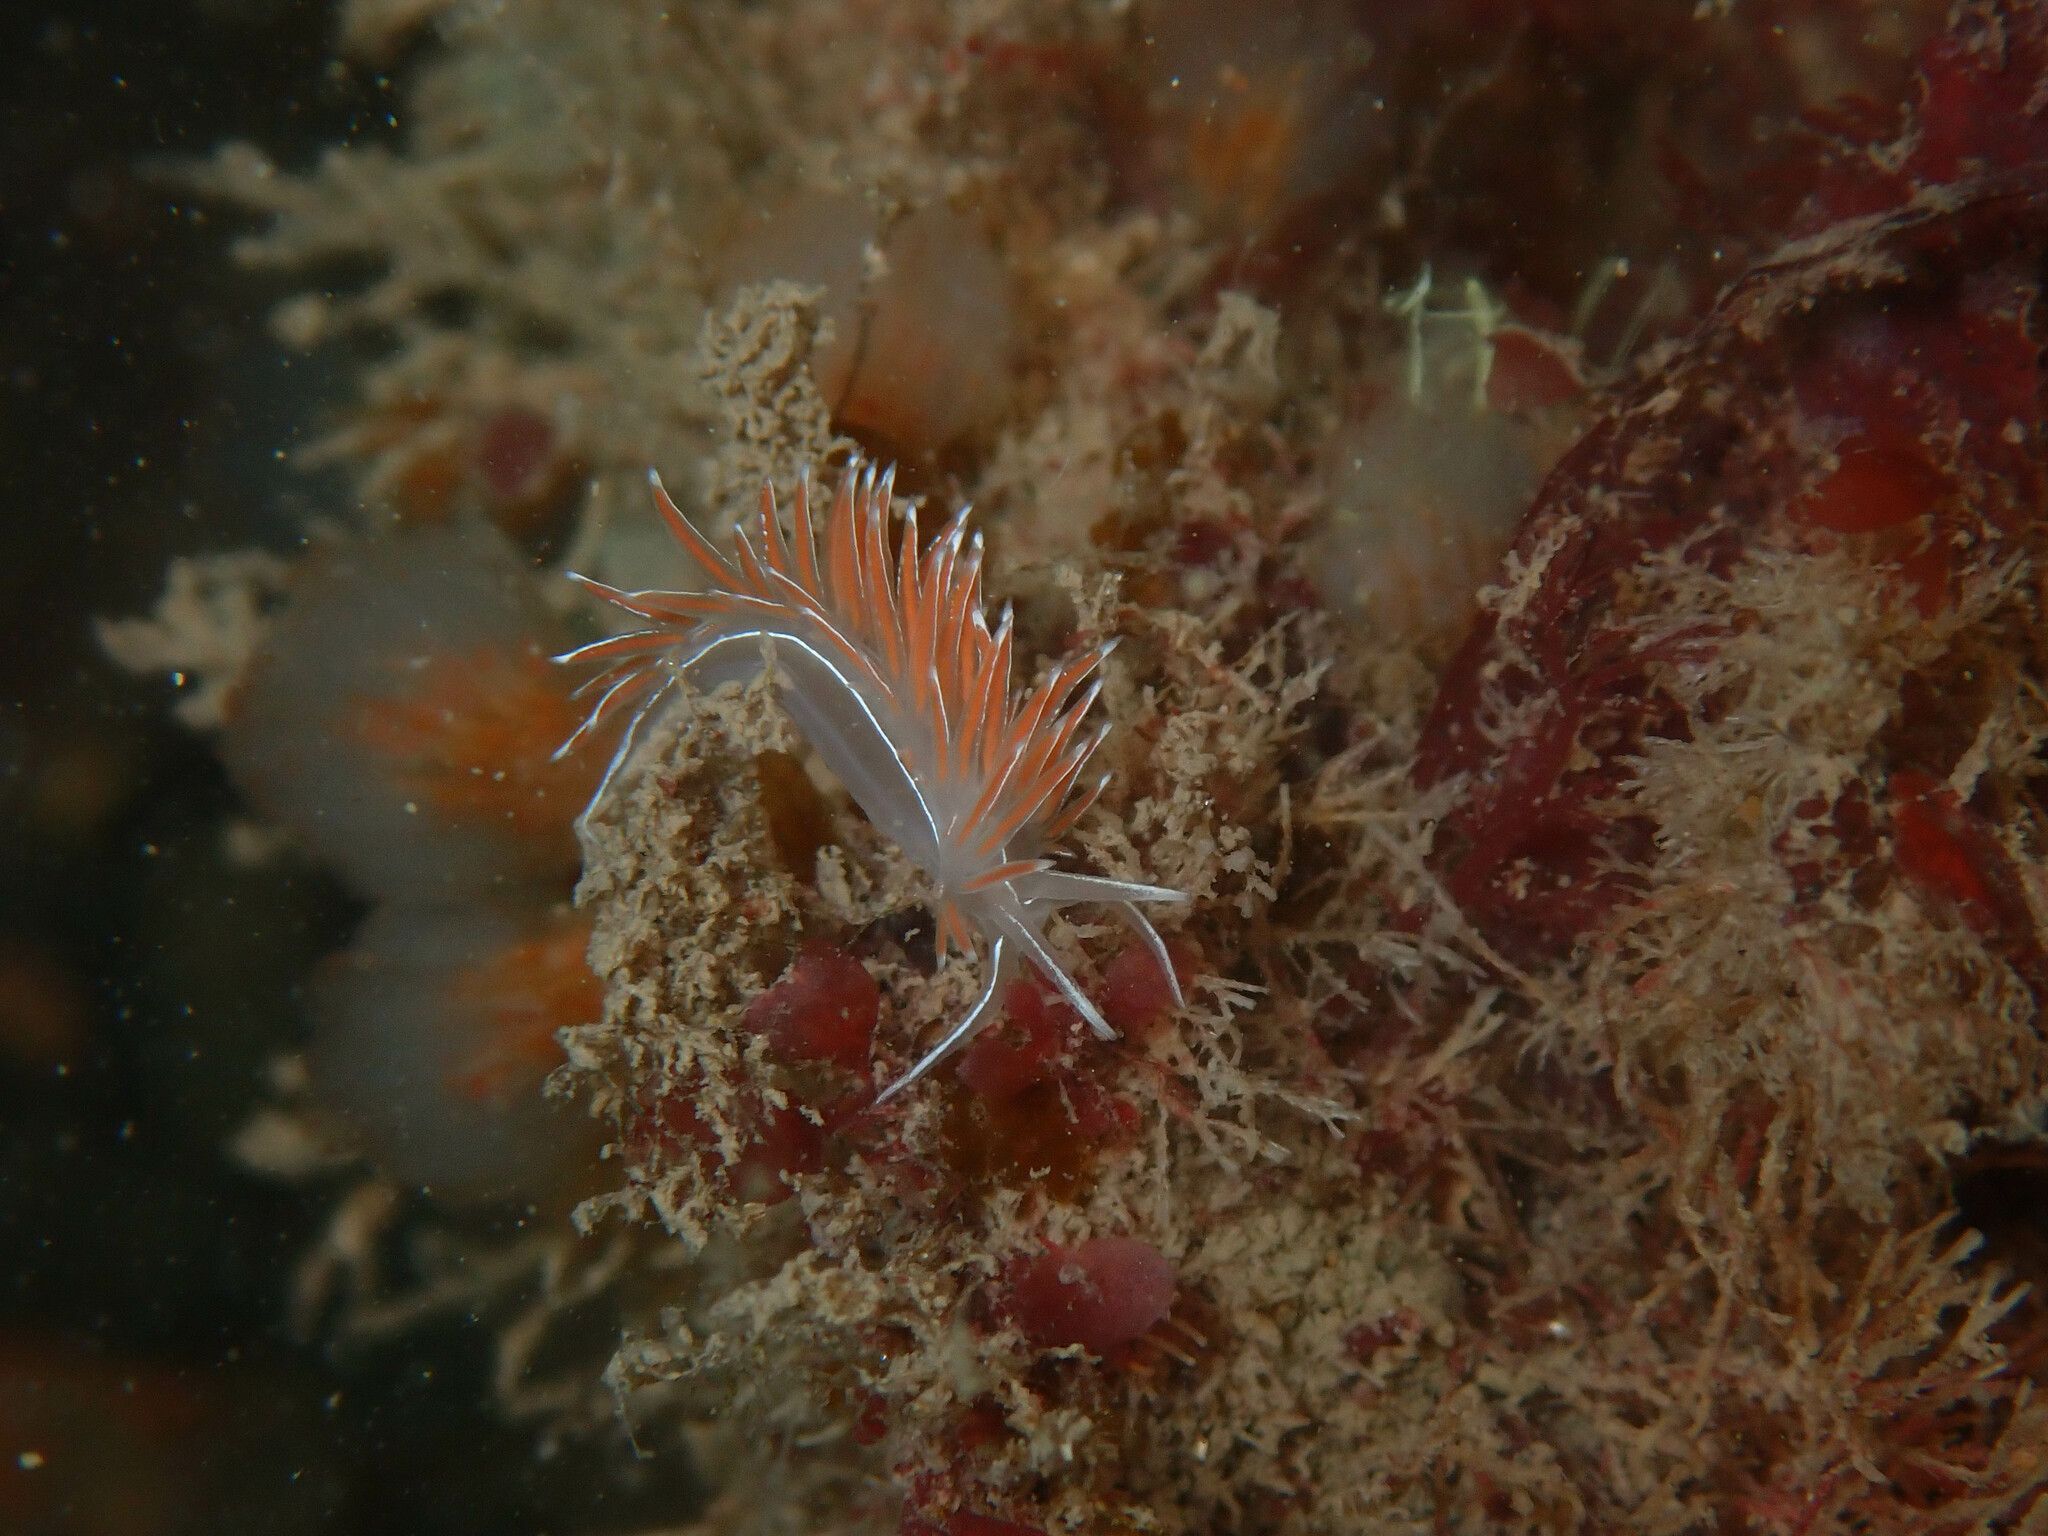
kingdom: Animalia
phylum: Mollusca
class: Gastropoda
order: Nudibranchia
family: Coryphellidae
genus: Coryphella
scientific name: Coryphella lineata
